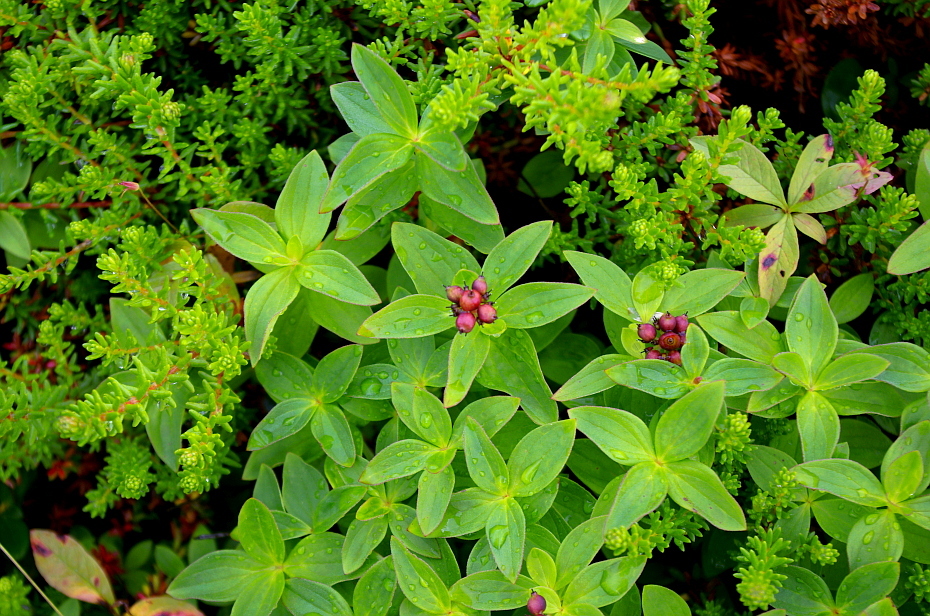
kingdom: Plantae
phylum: Tracheophyta
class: Magnoliopsida
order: Cornales
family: Cornaceae
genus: Cornus
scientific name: Cornus suecica
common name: Dwarf cornel
